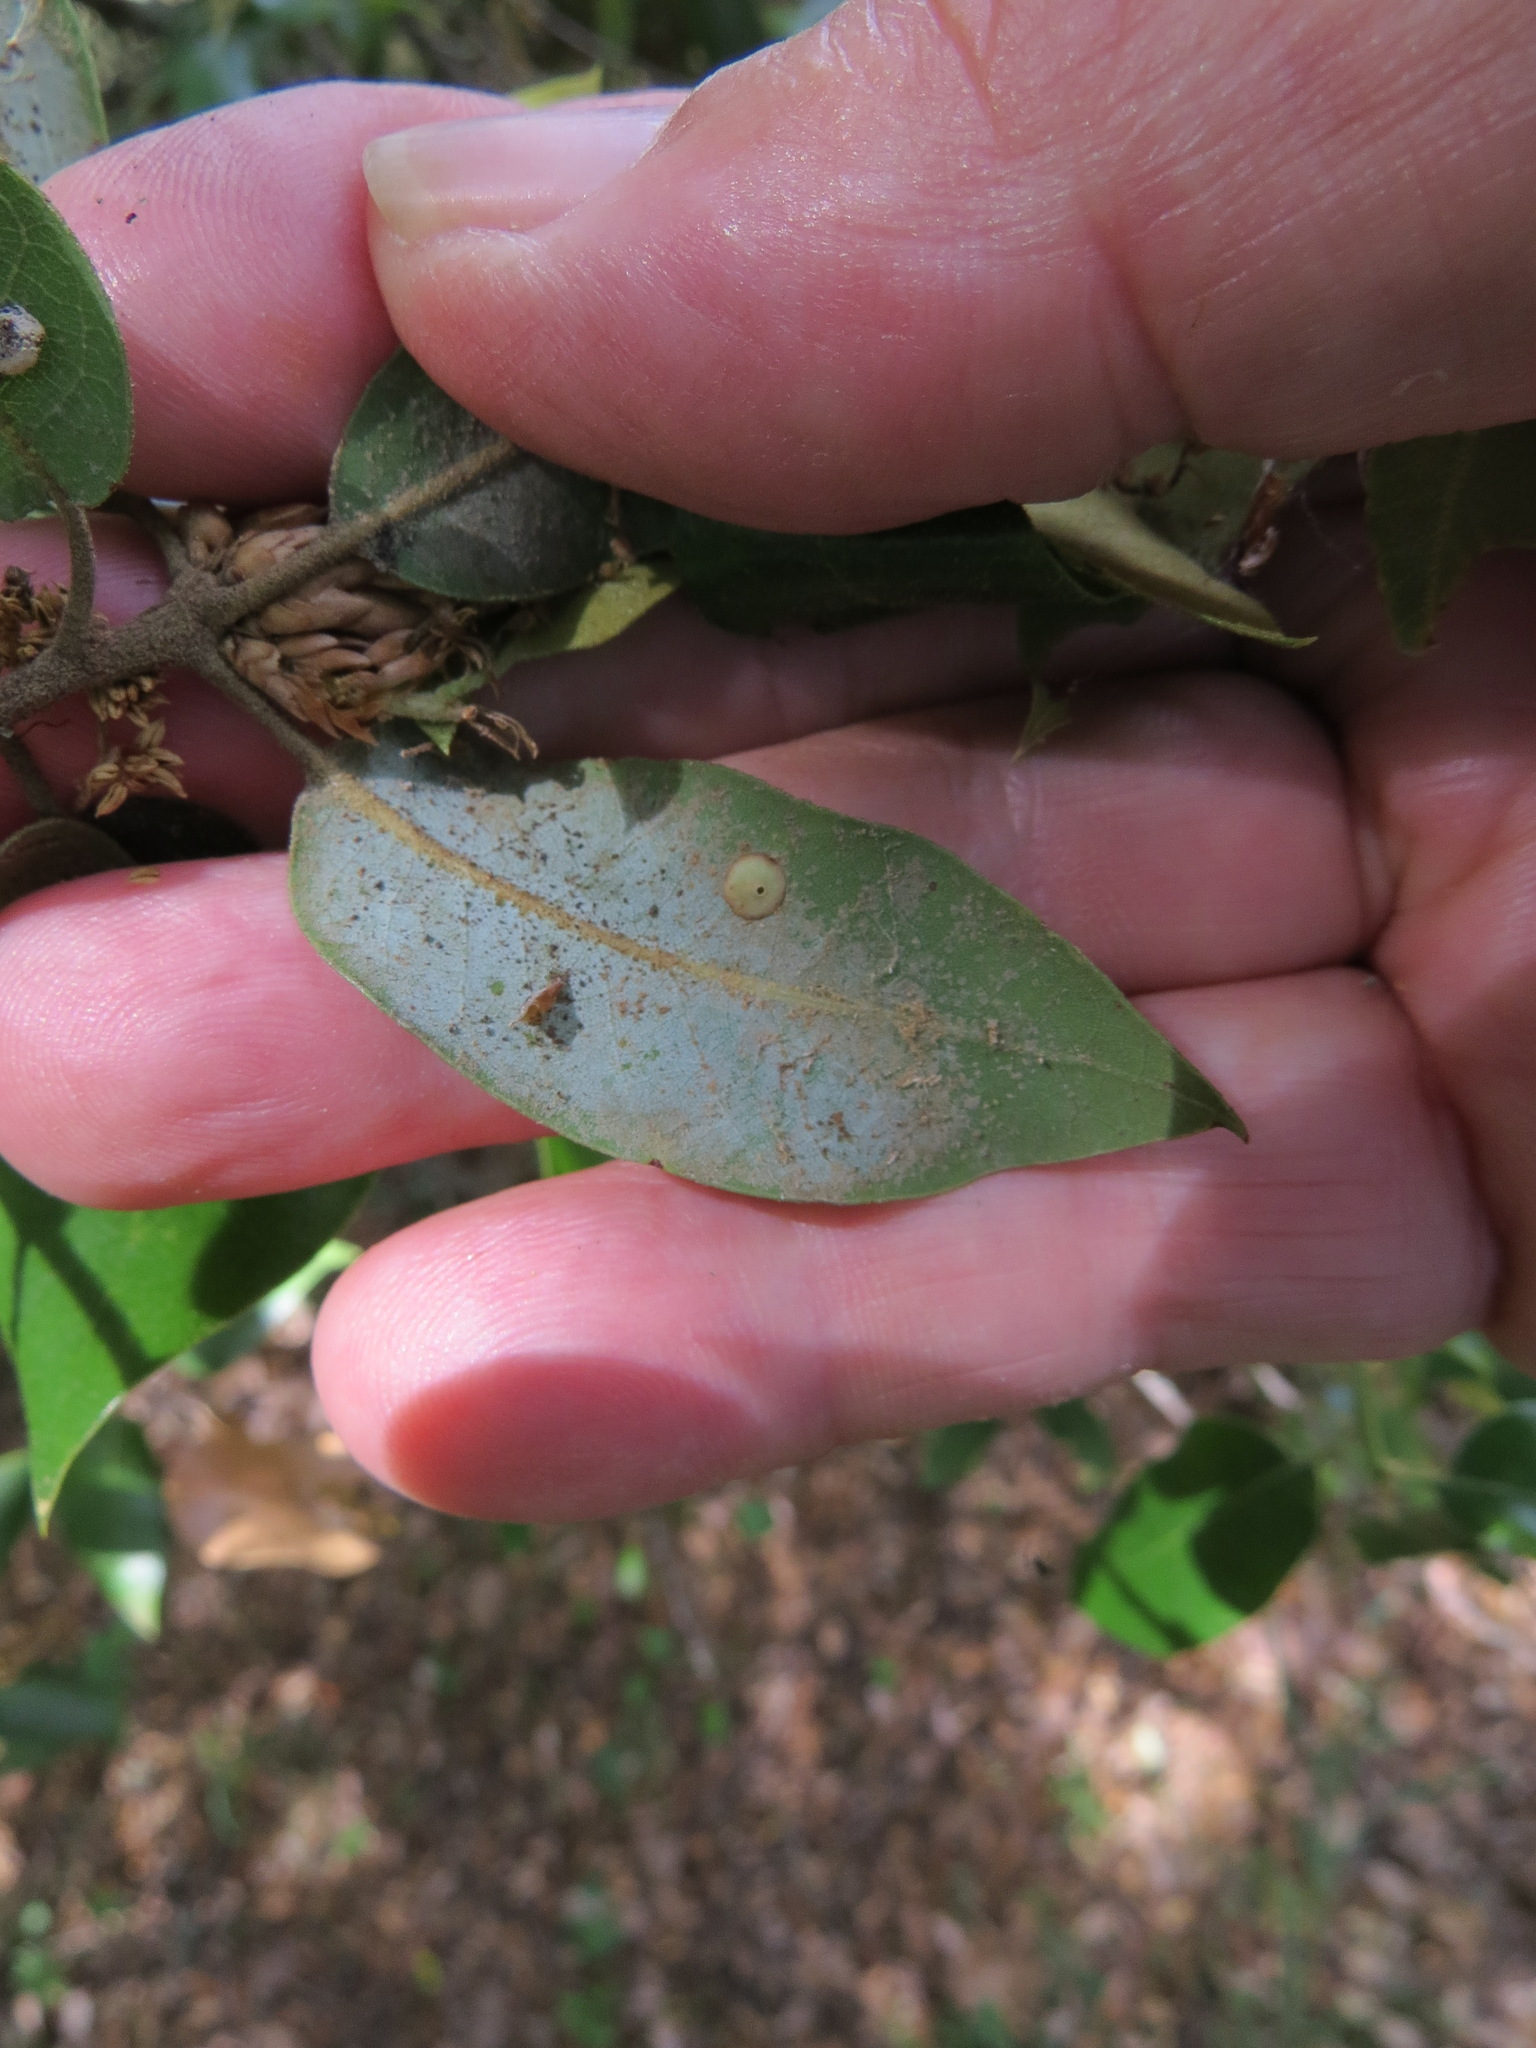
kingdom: Animalia
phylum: Arthropoda
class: Insecta
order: Hymenoptera
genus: Paracraspis
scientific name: Paracraspis
